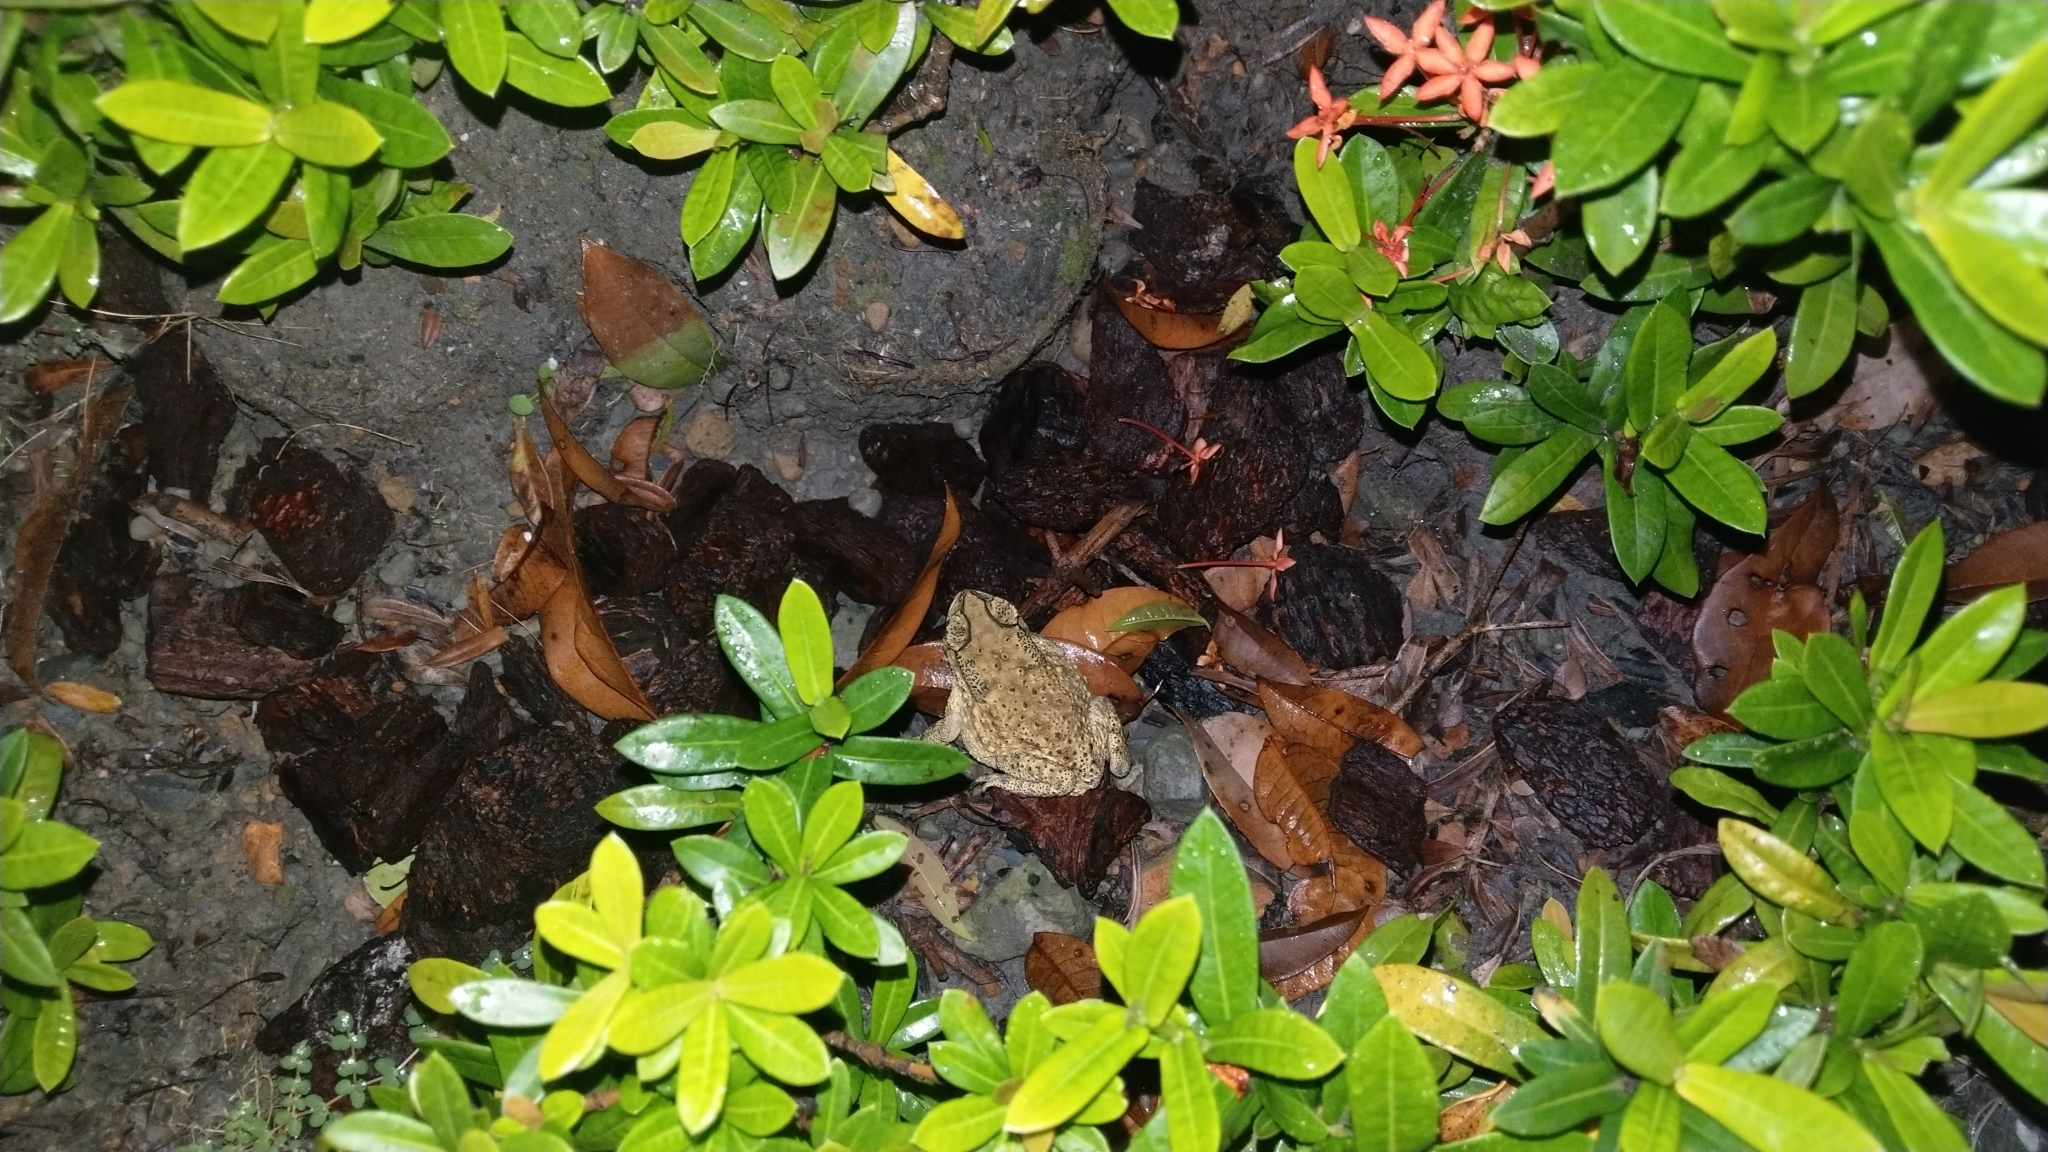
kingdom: Animalia
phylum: Chordata
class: Amphibia
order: Anura
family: Bufonidae
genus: Duttaphrynus
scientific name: Duttaphrynus melanostictus
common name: Common sunda toad
